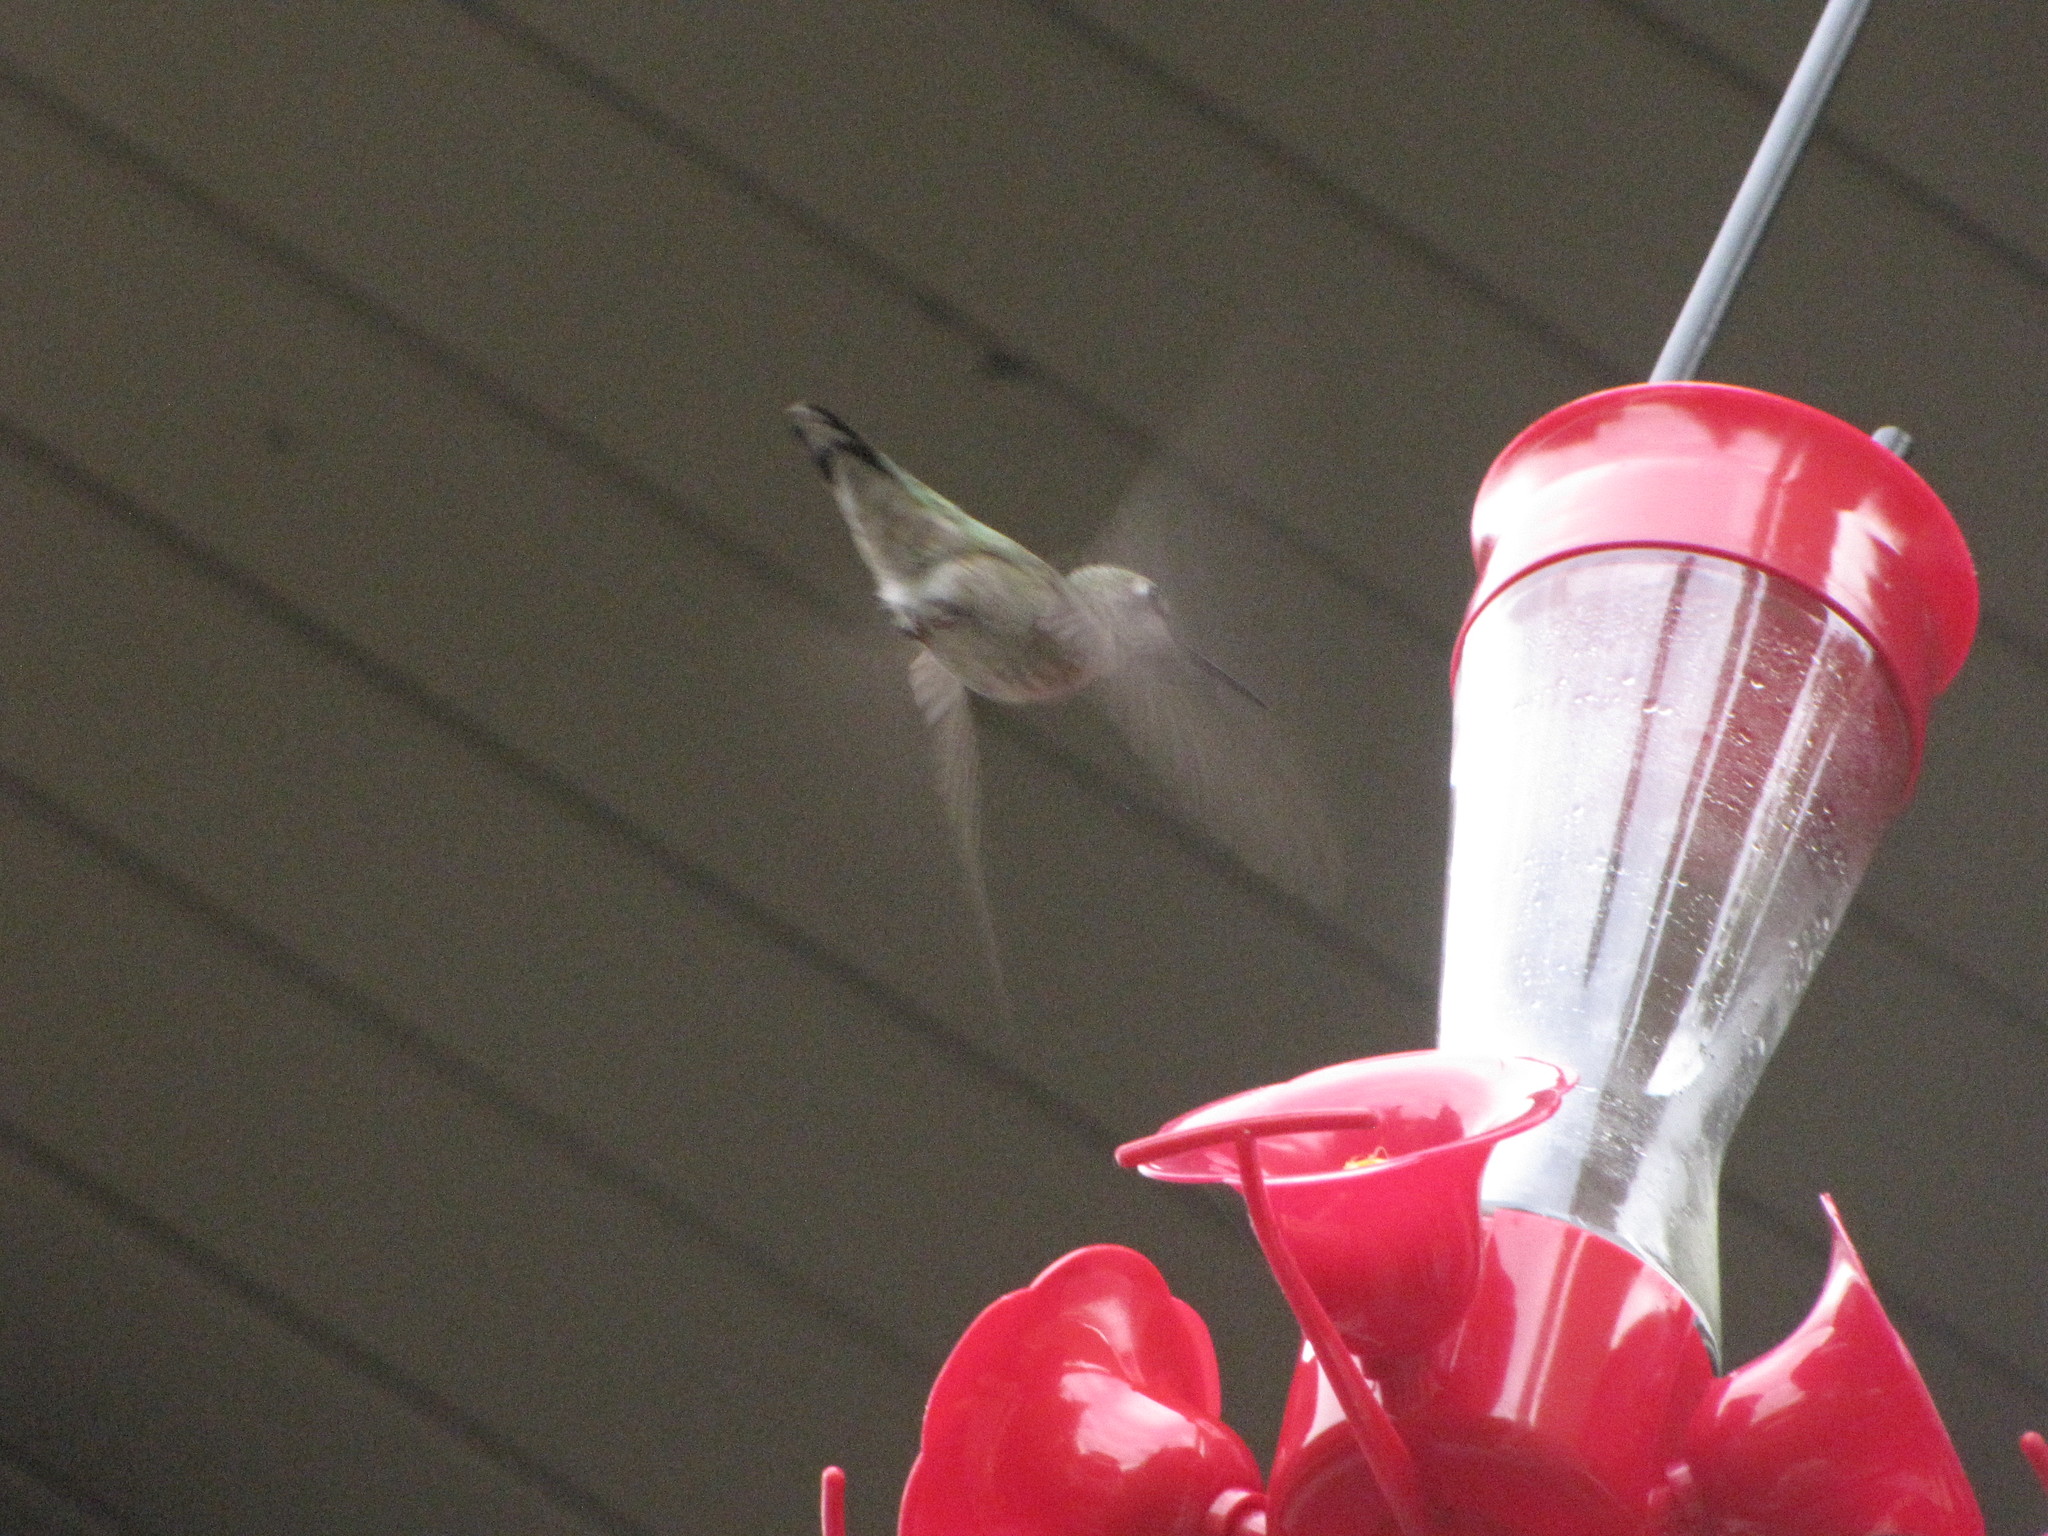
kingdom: Animalia
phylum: Chordata
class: Aves
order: Apodiformes
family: Trochilidae
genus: Calypte
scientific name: Calypte anna
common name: Anna's hummingbird
